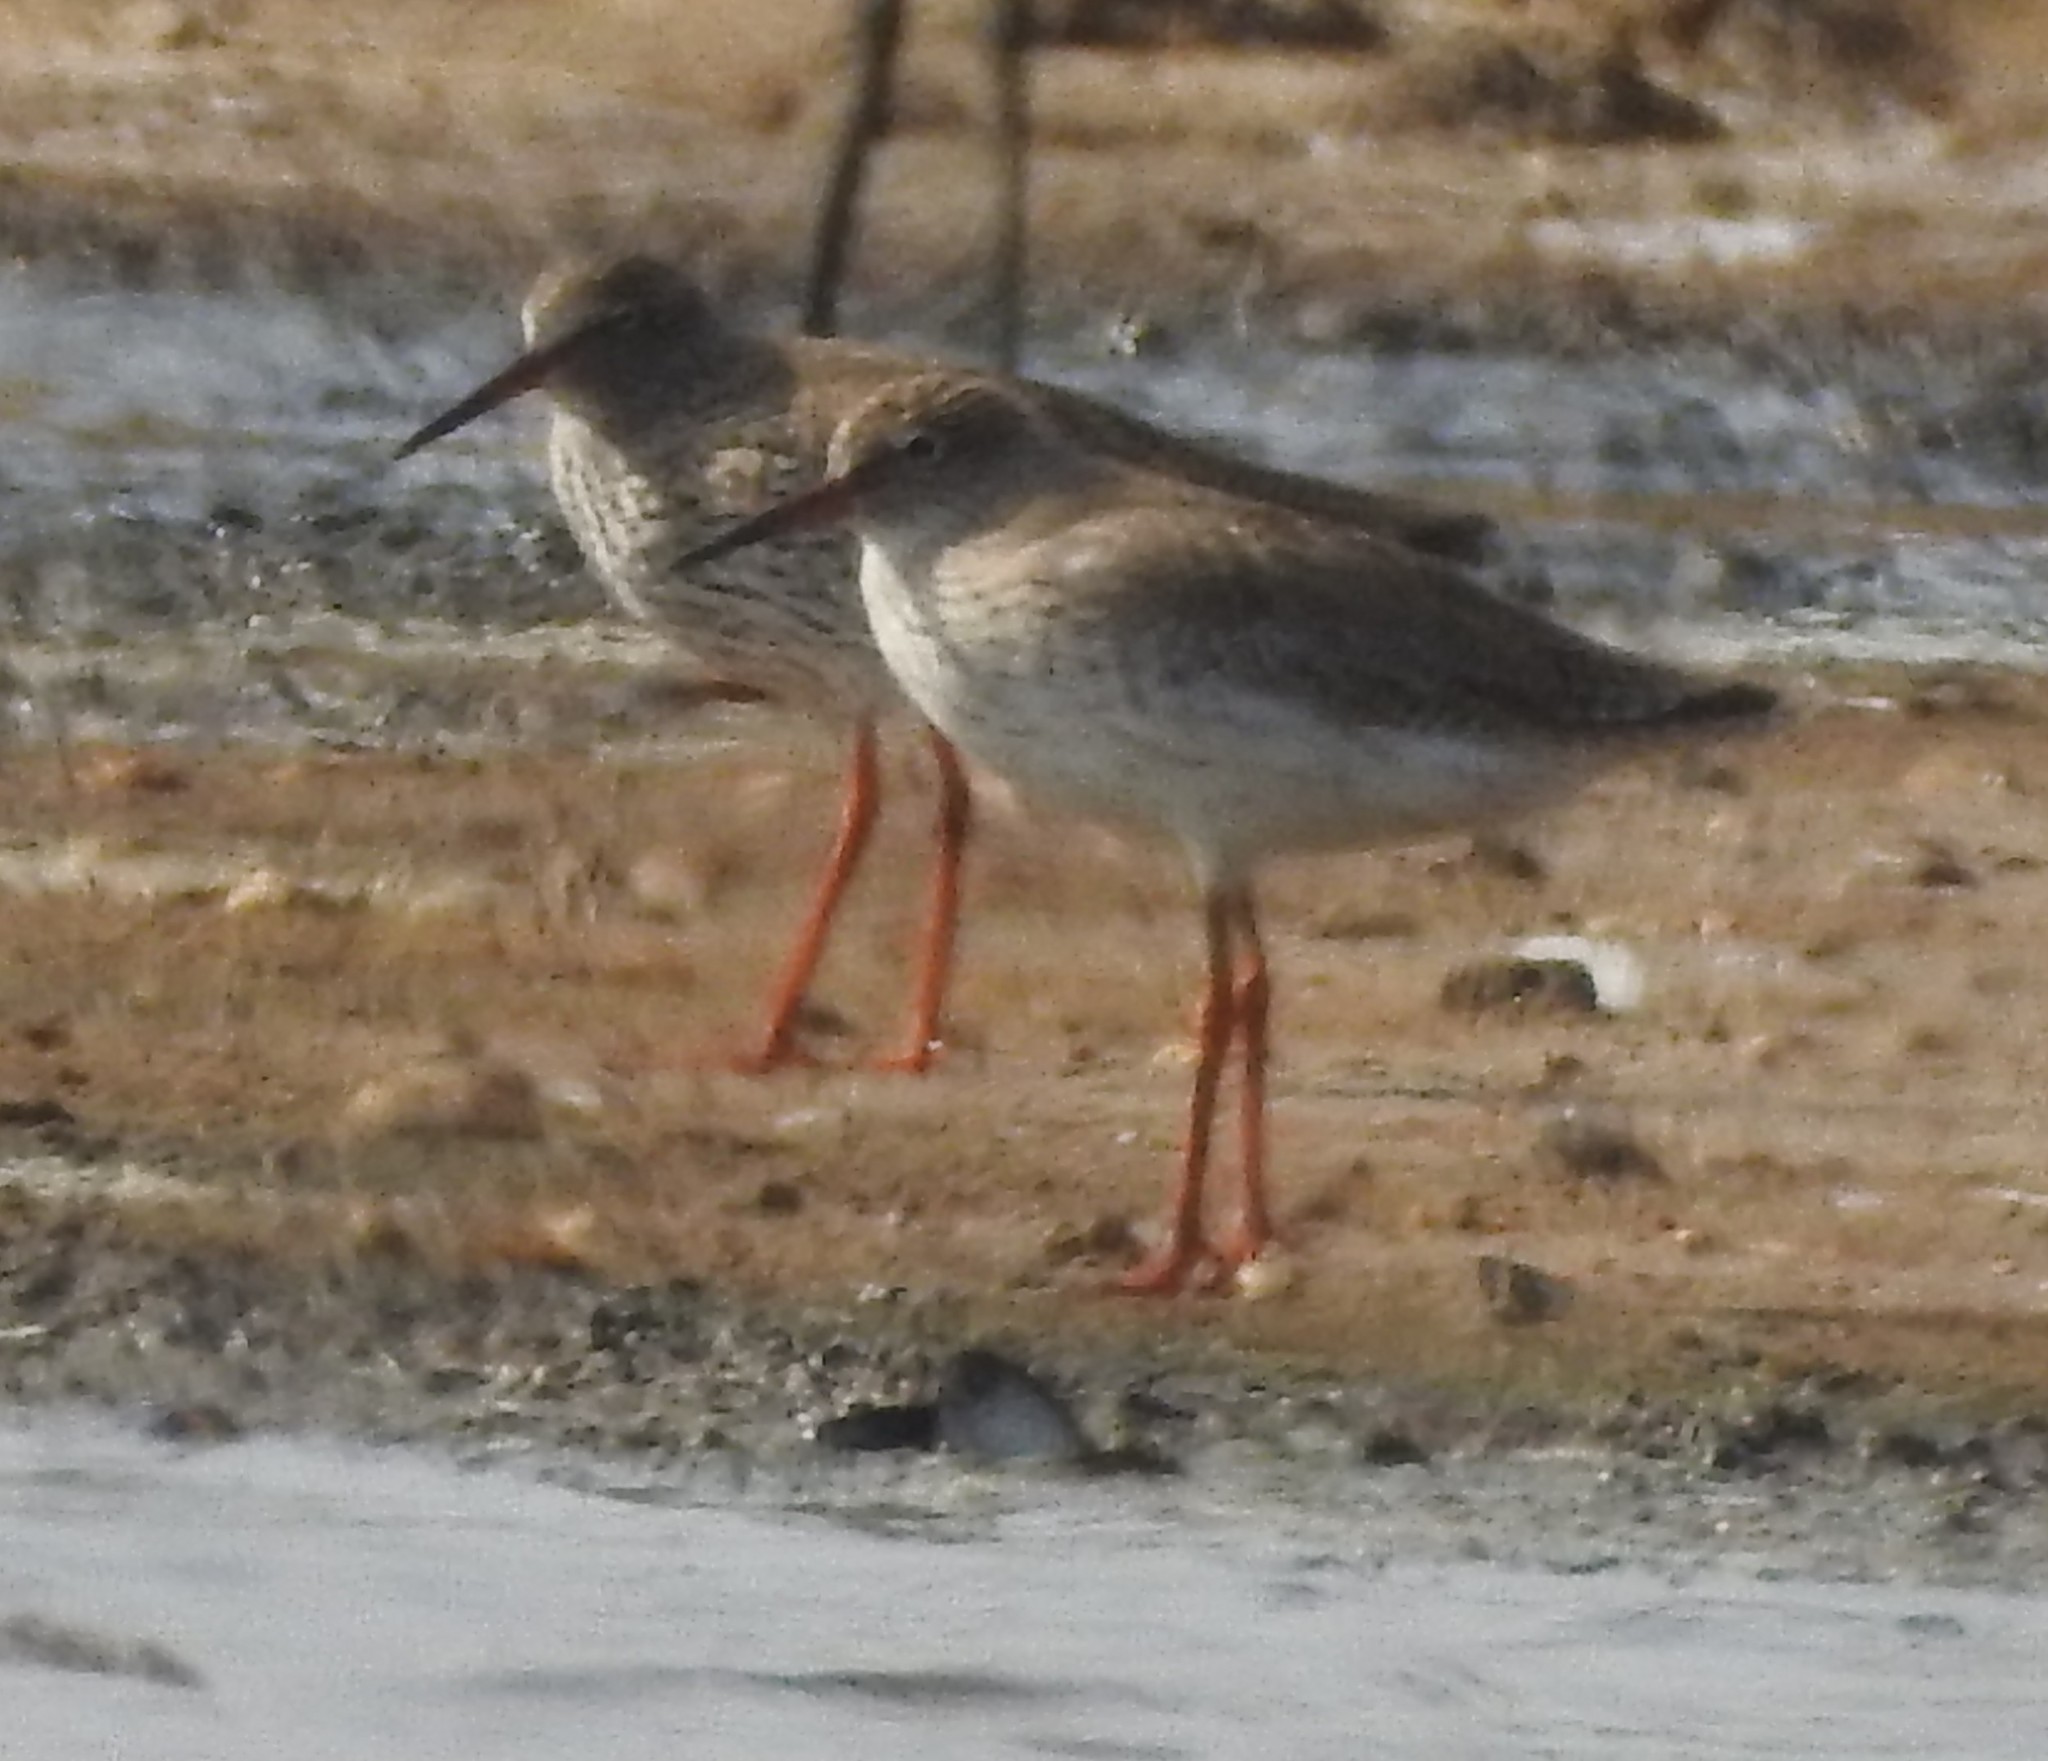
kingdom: Animalia
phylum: Chordata
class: Aves
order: Charadriiformes
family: Scolopacidae
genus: Tringa
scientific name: Tringa totanus
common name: Common redshank
